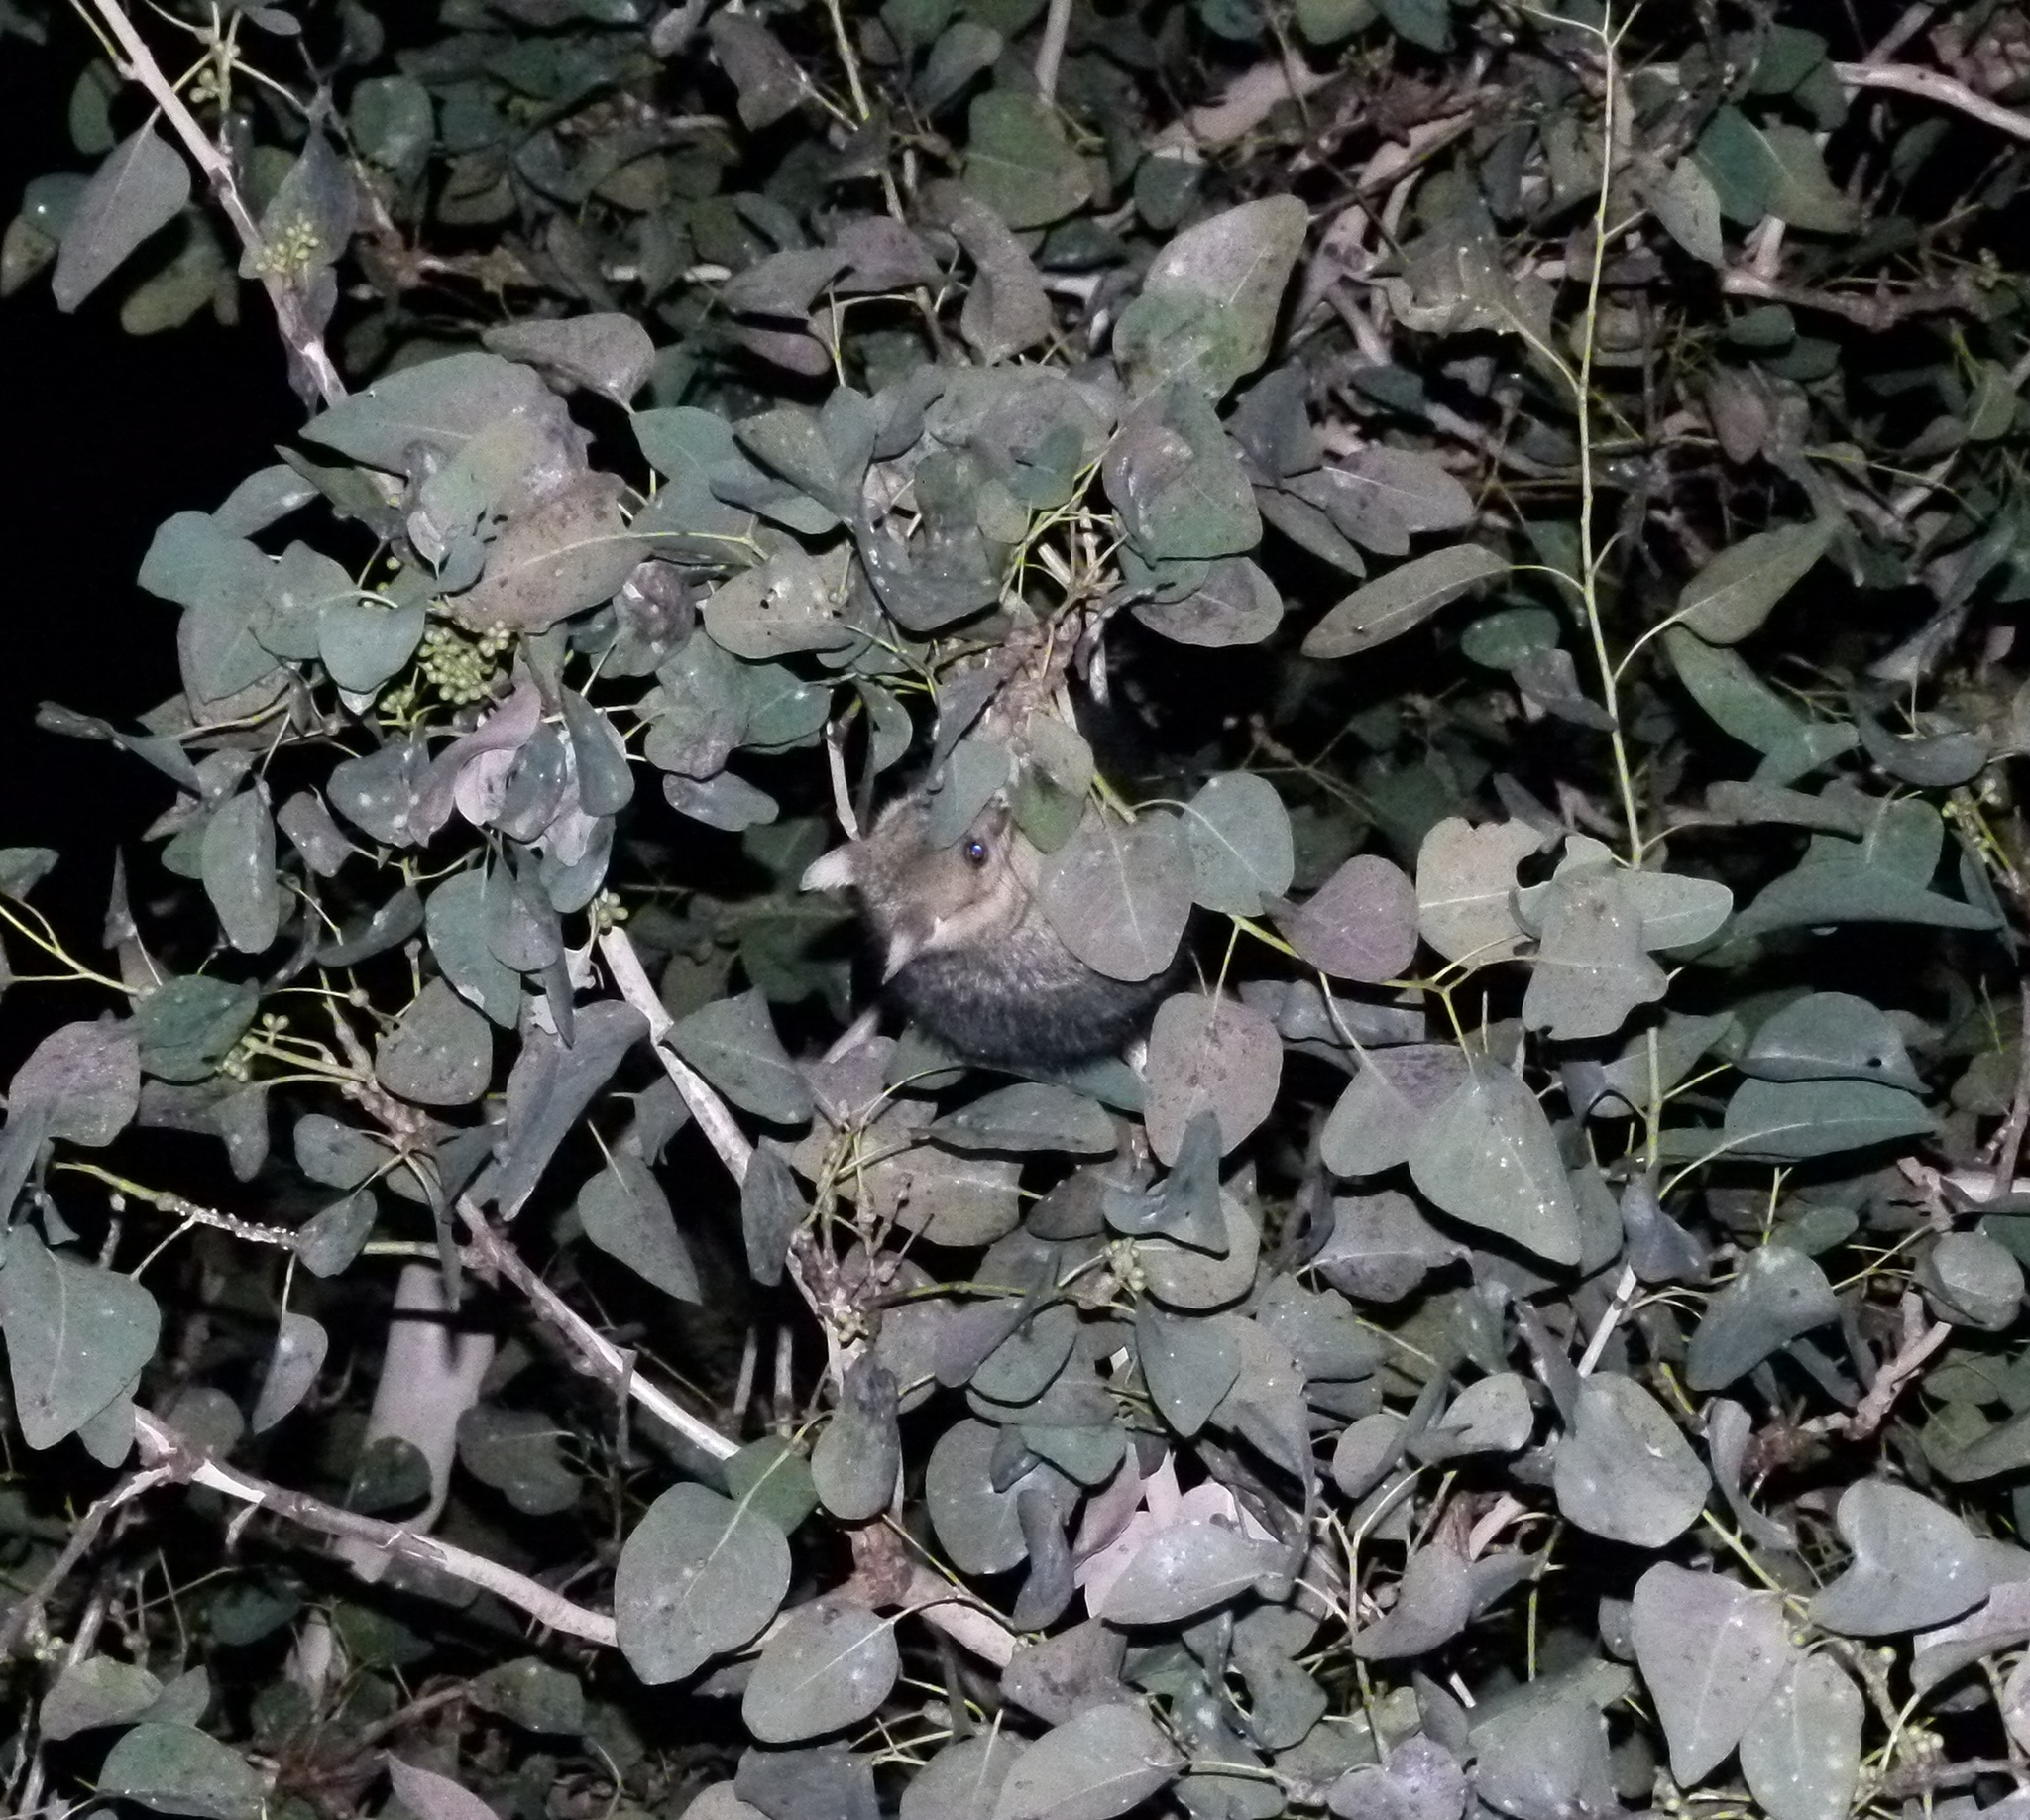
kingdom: Animalia
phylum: Chordata
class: Mammalia
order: Diprotodontia
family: Phalangeridae
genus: Trichosurus
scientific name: Trichosurus vulpecula
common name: Common brushtail
